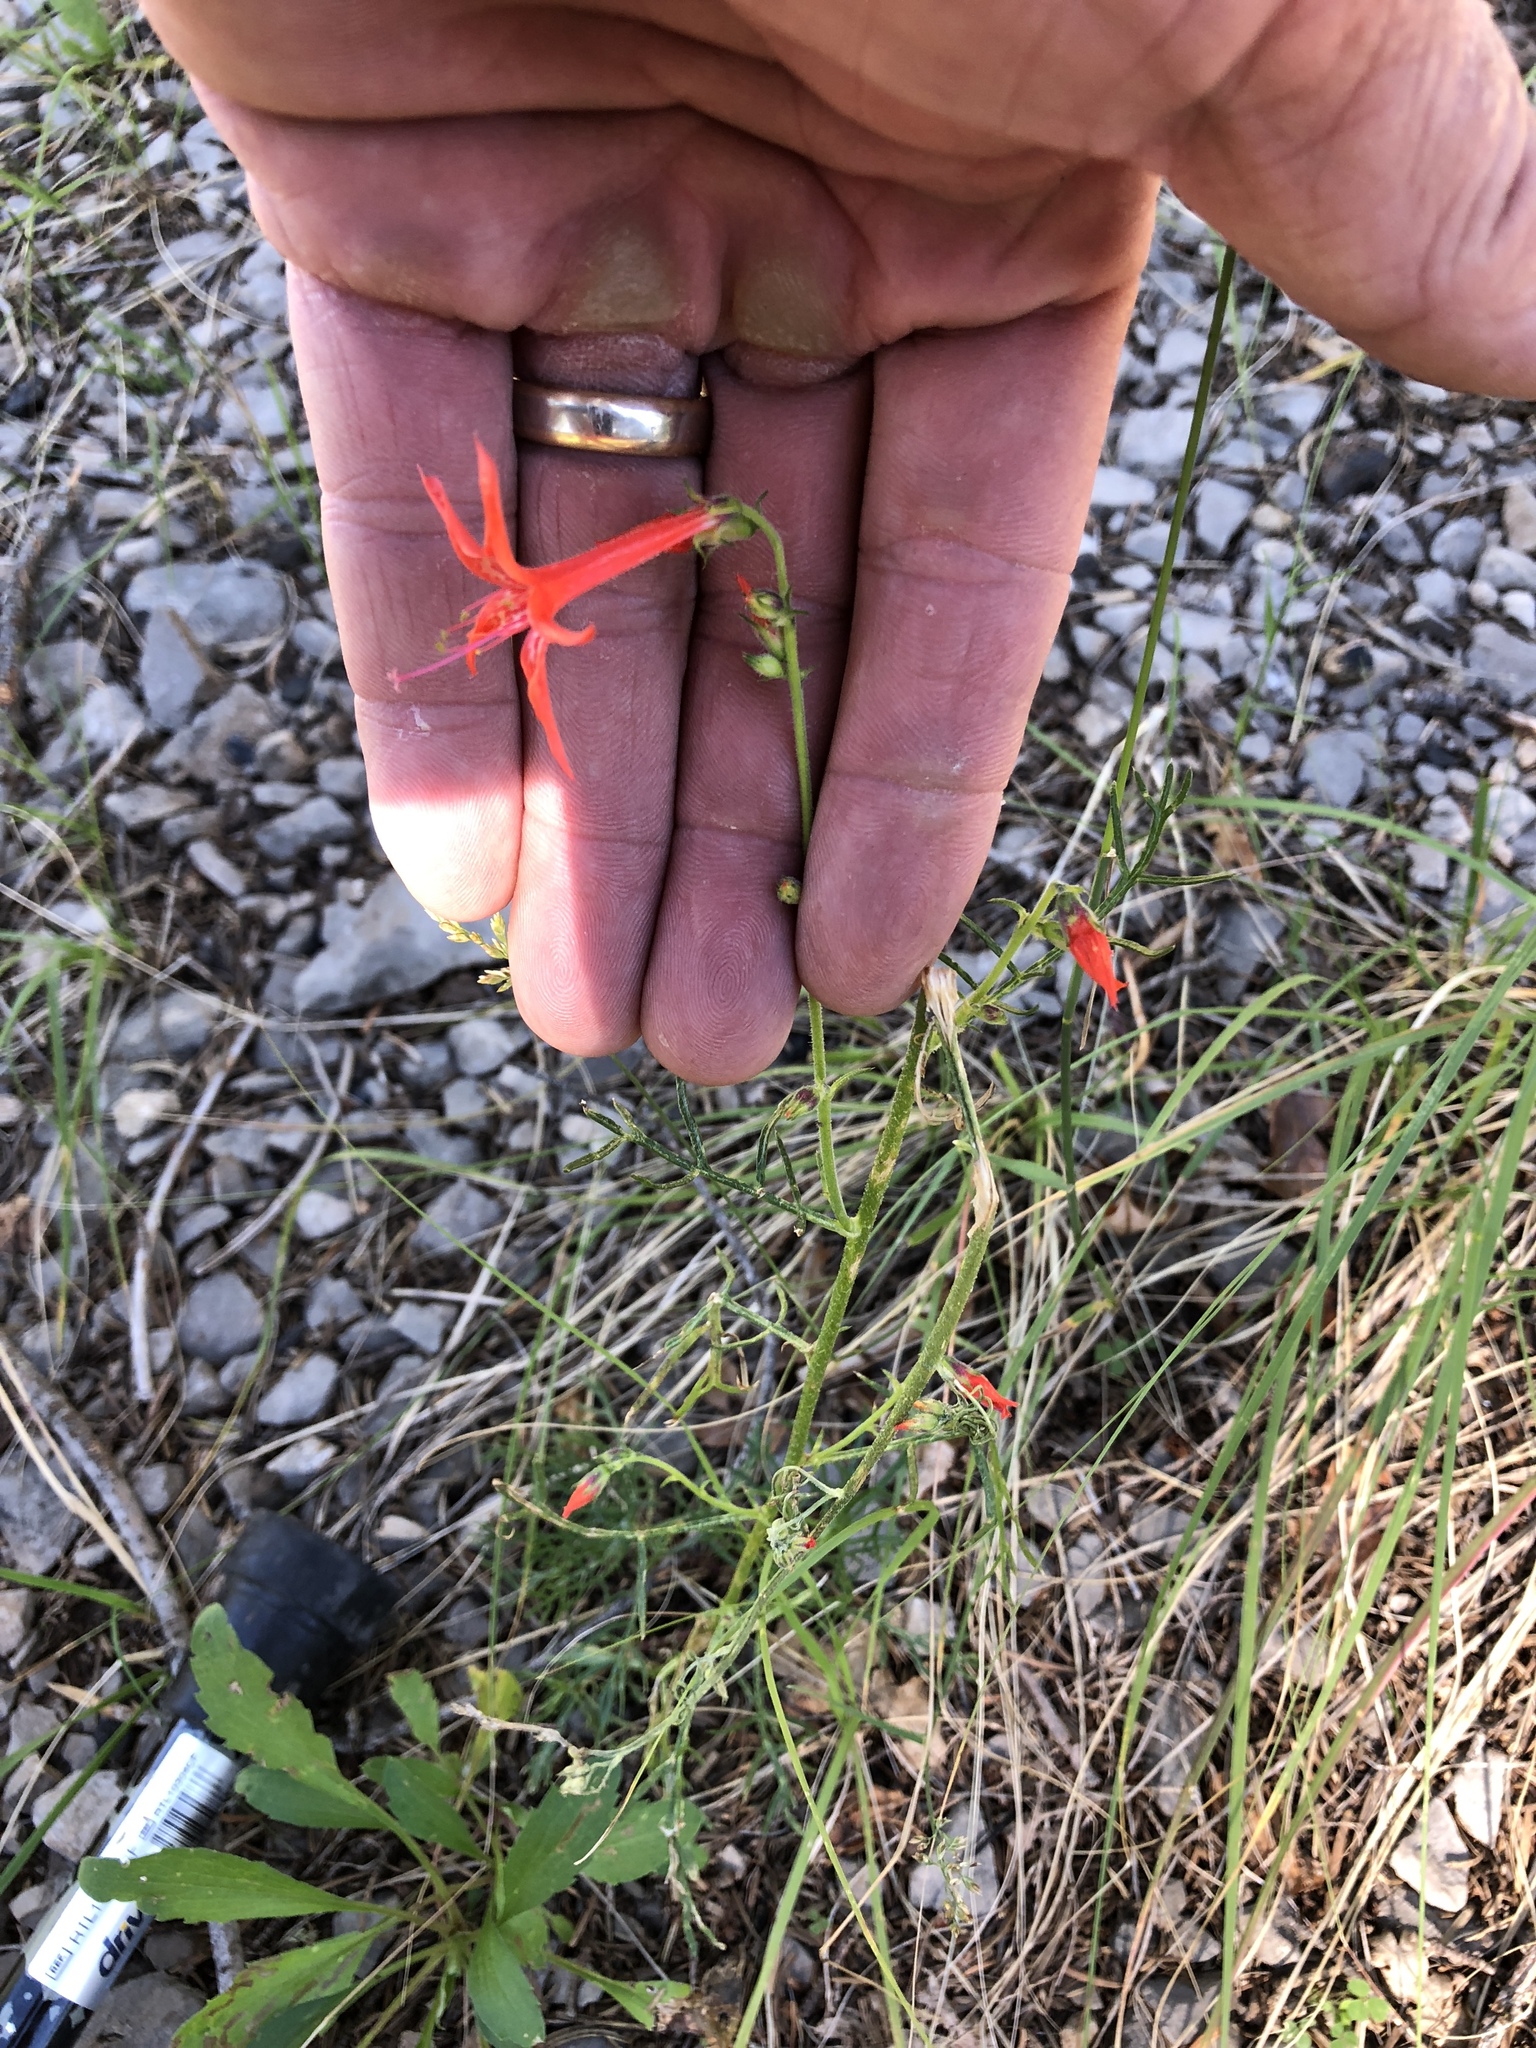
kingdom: Plantae
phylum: Tracheophyta
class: Magnoliopsida
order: Ericales
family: Polemoniaceae
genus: Ipomopsis
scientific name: Ipomopsis aggregata
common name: Scarlet gilia
